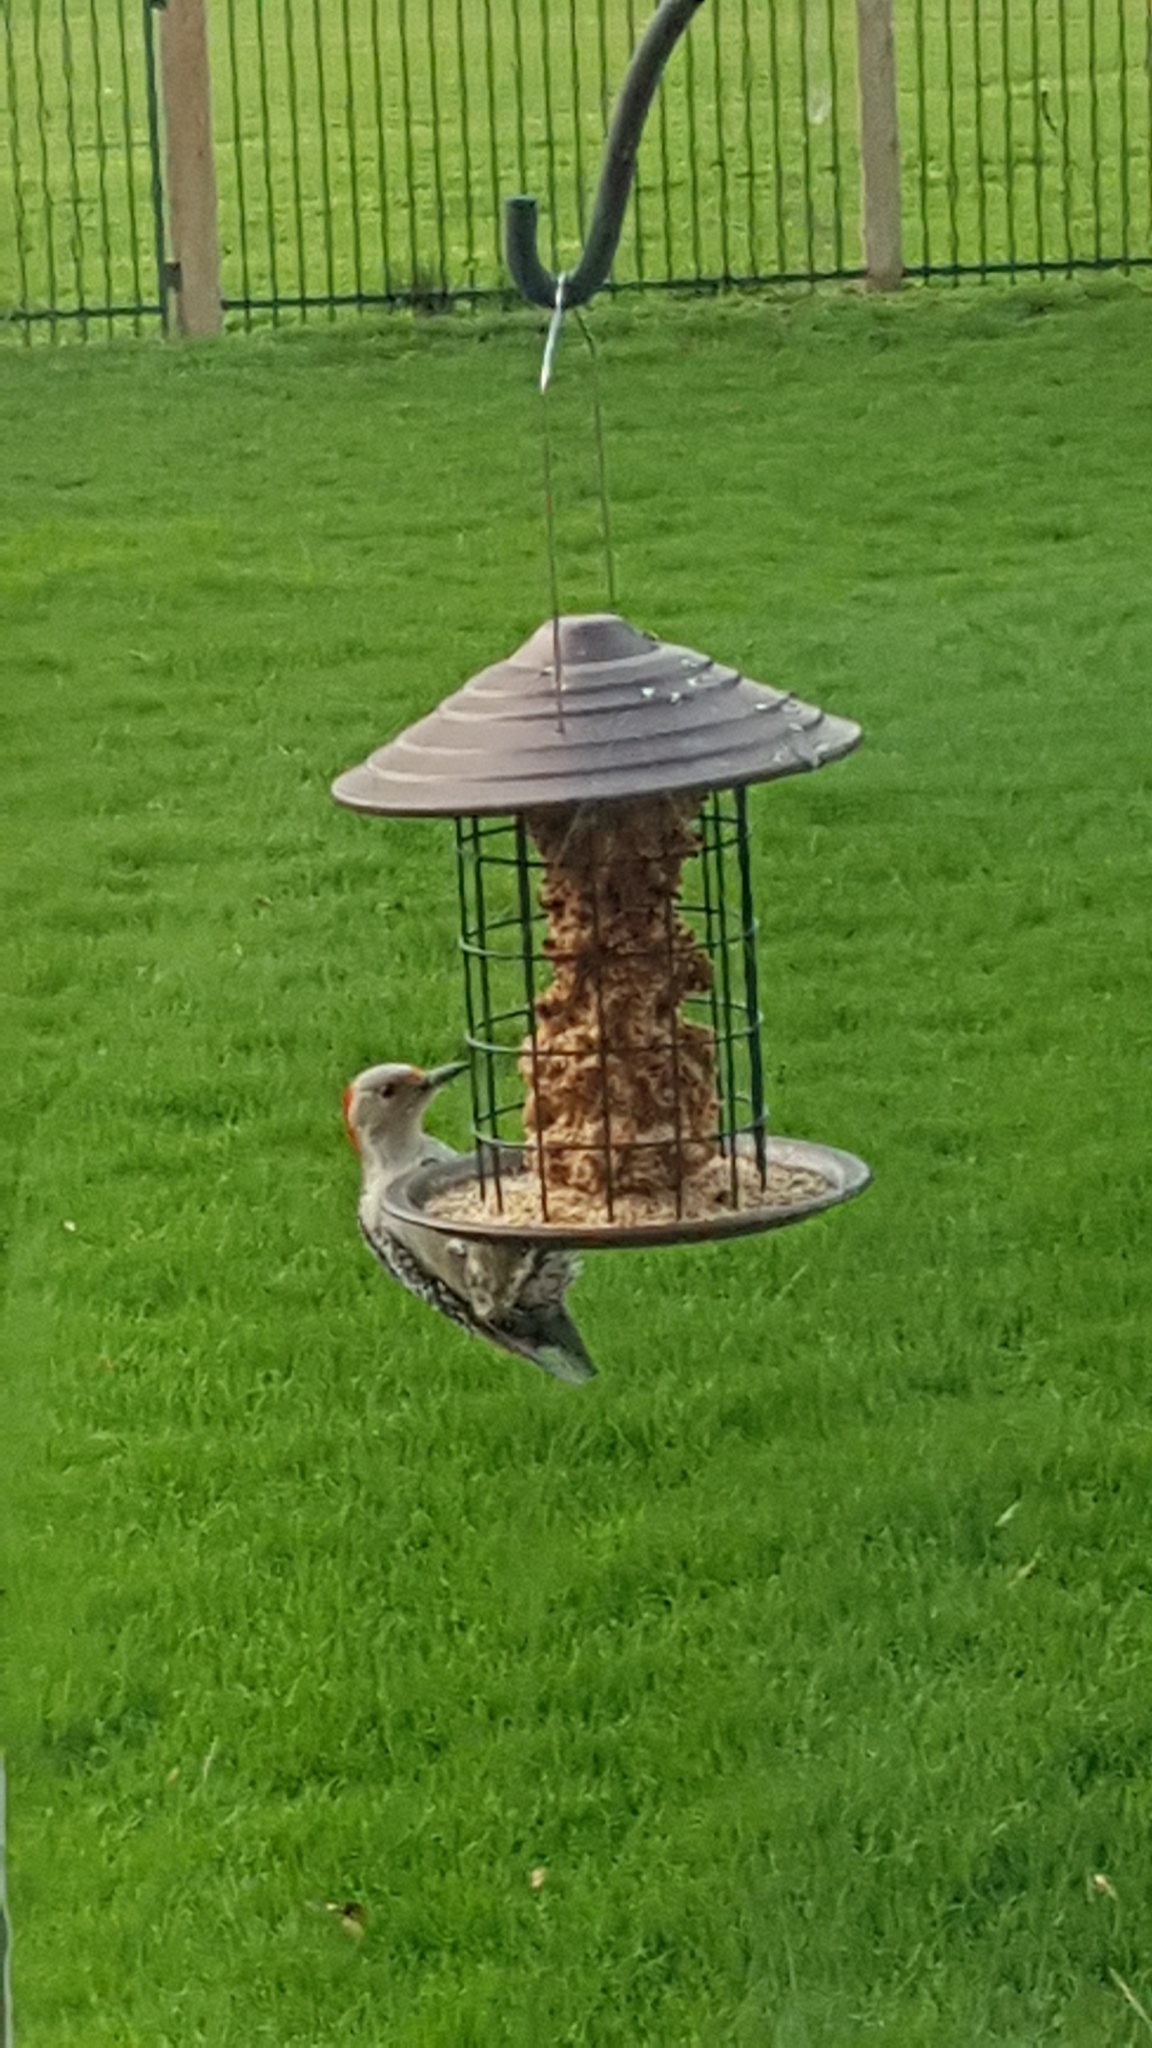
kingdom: Animalia
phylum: Chordata
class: Aves
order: Piciformes
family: Picidae
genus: Melanerpes
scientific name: Melanerpes carolinus
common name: Red-bellied woodpecker
